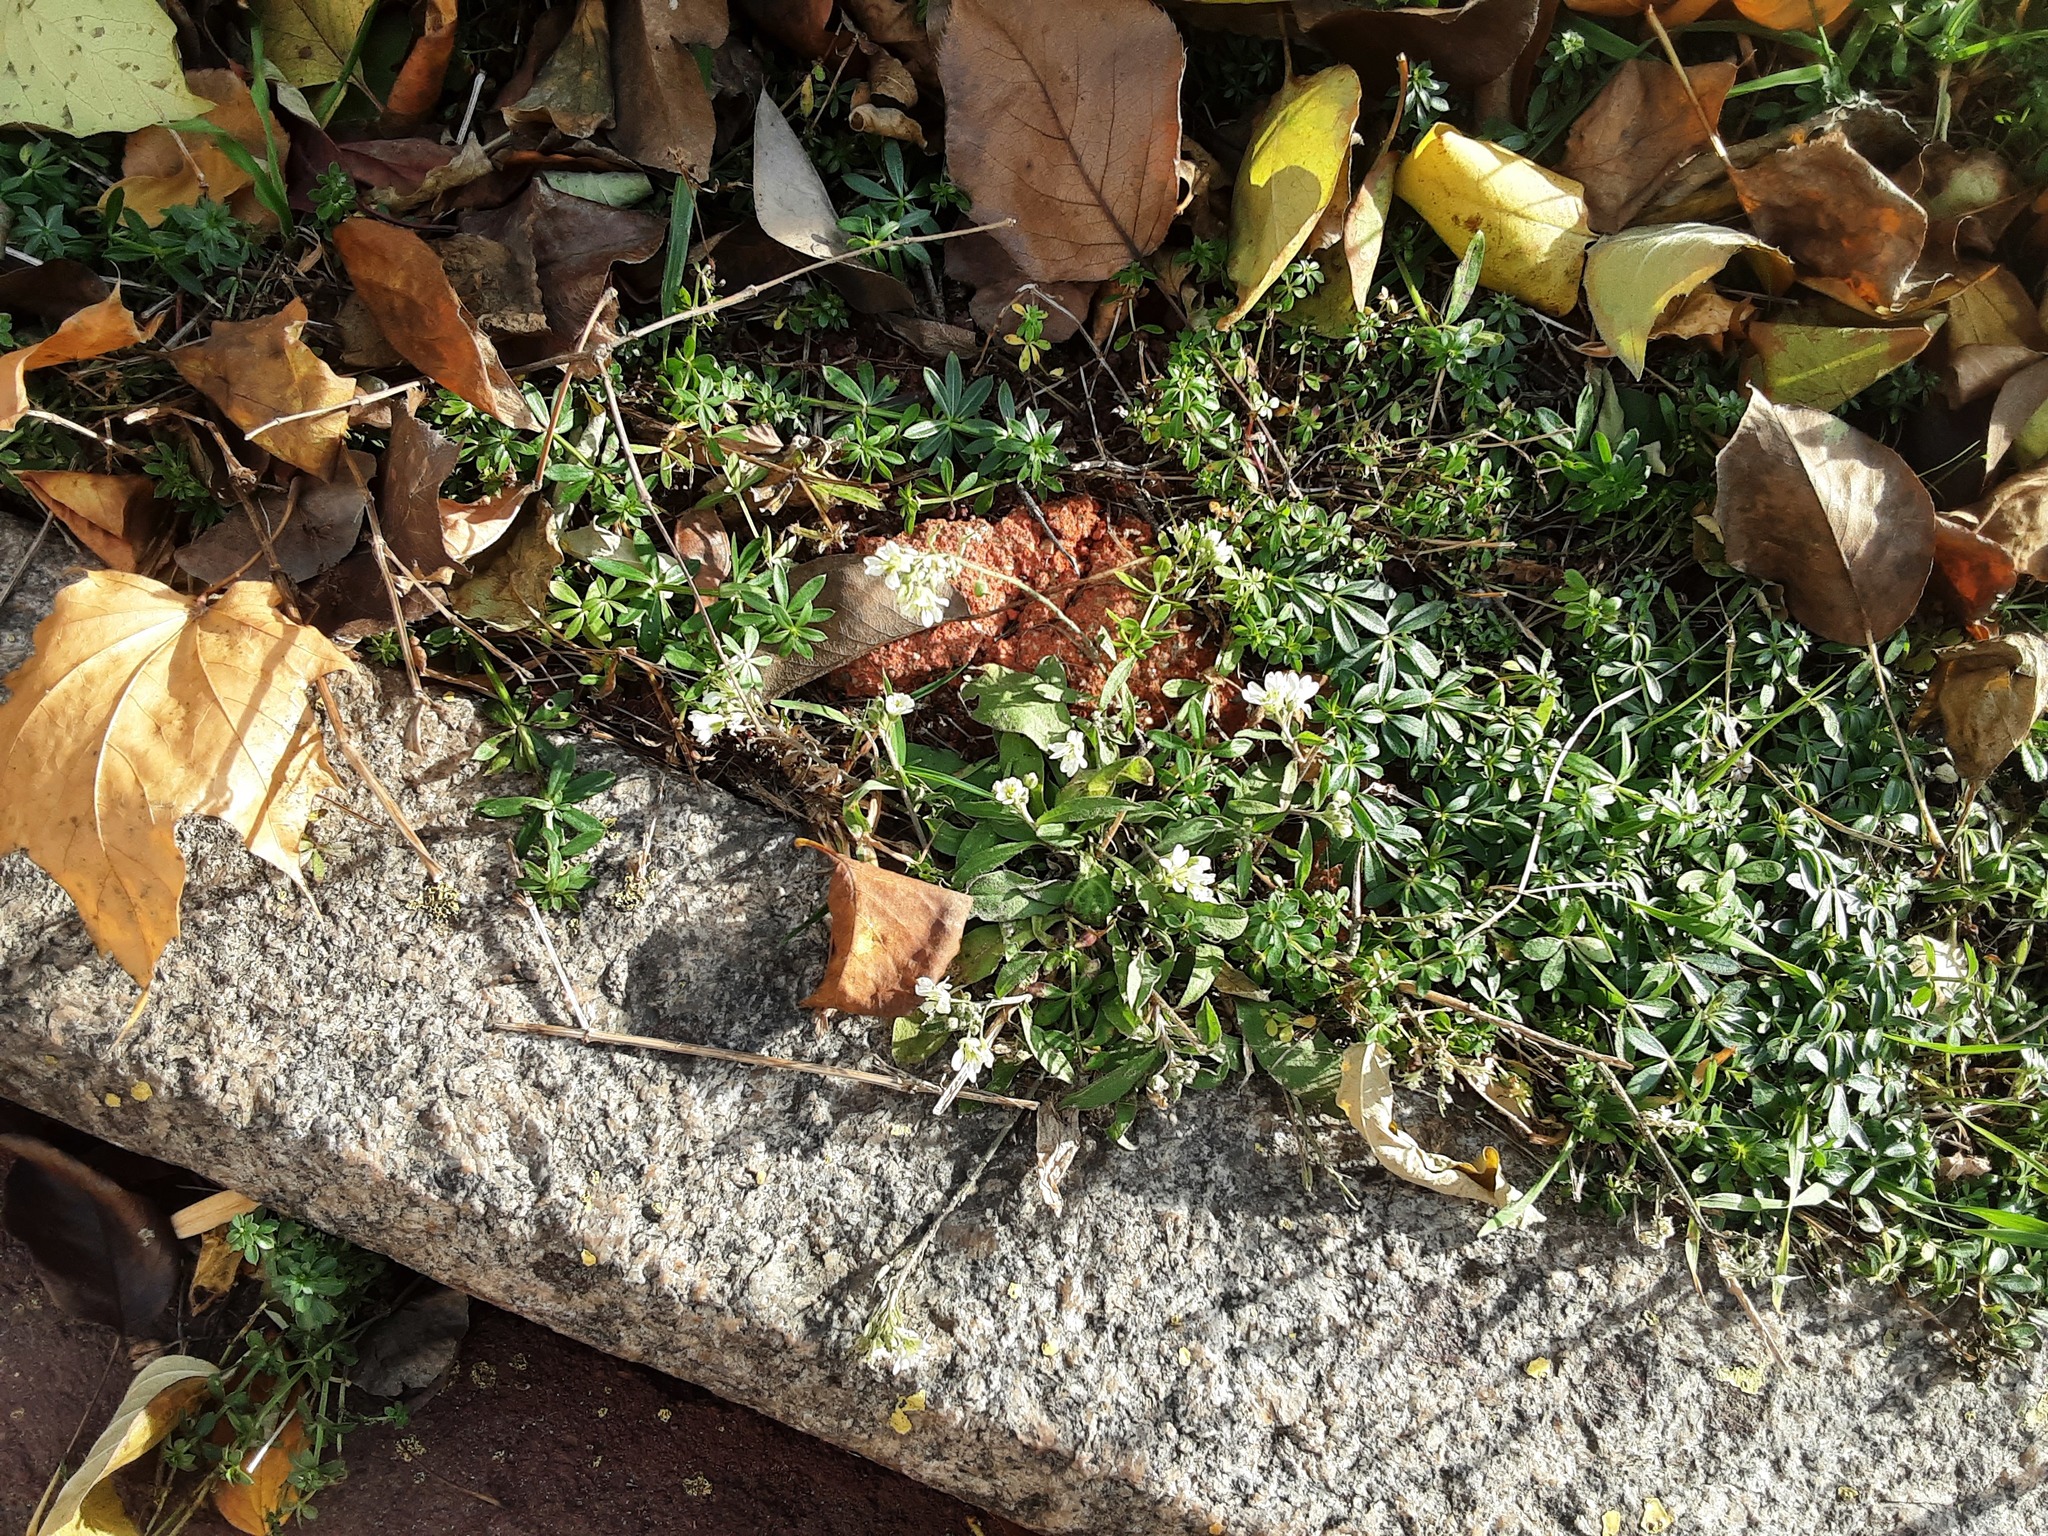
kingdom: Plantae
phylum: Tracheophyta
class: Magnoliopsida
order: Brassicales
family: Brassicaceae
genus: Berteroa
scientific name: Berteroa incana
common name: Hoary alison
